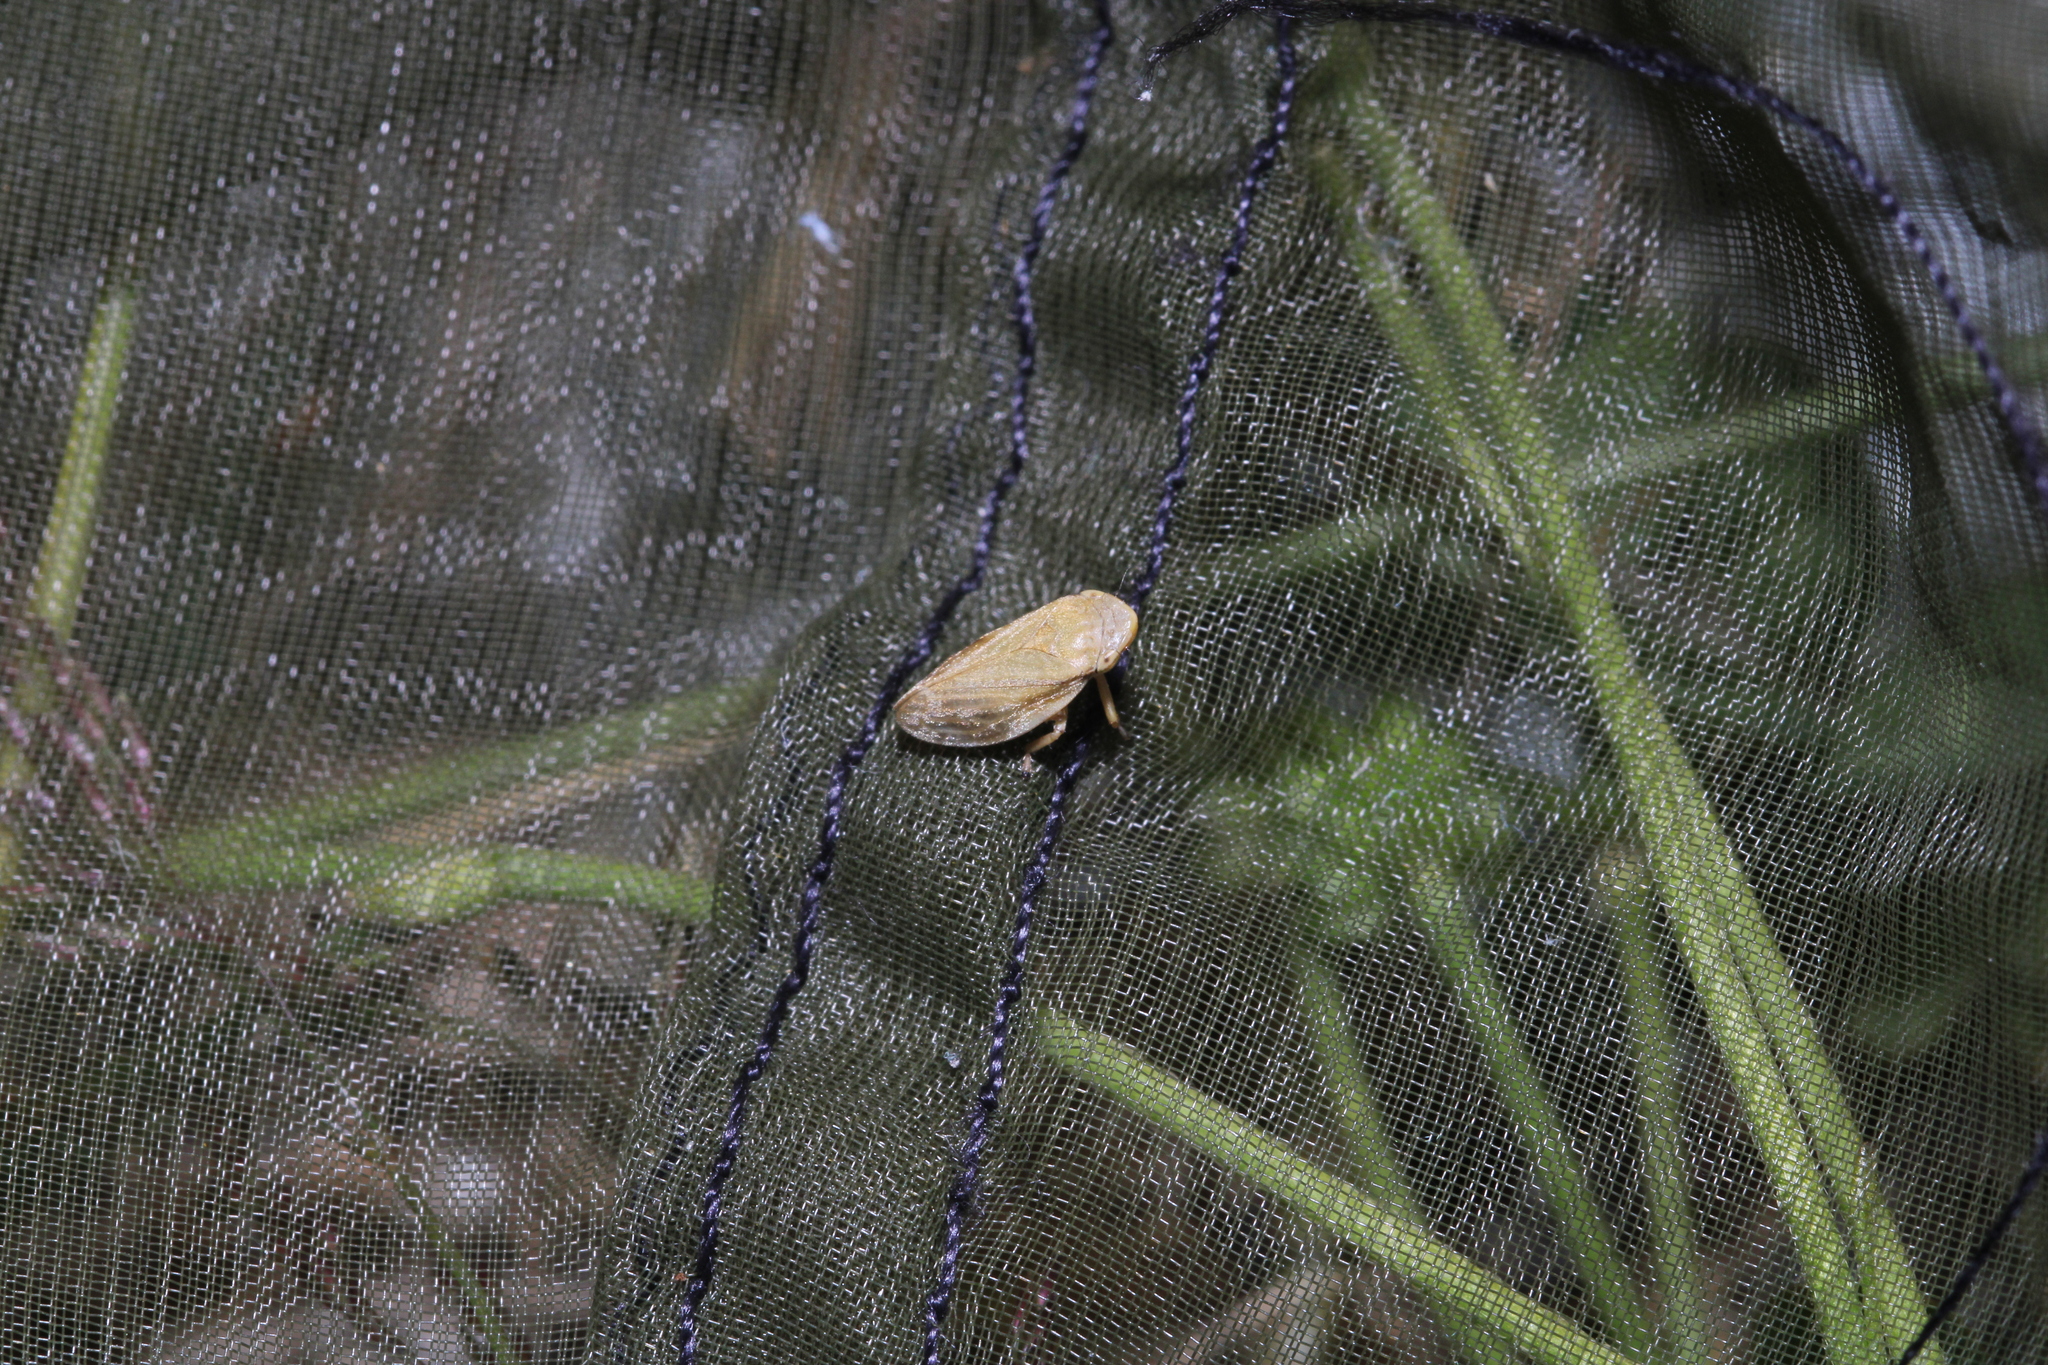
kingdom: Animalia
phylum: Arthropoda
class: Insecta
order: Hemiptera
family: Aphrophoridae
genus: Philaenus
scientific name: Philaenus spumarius
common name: Meadow spittlebug
